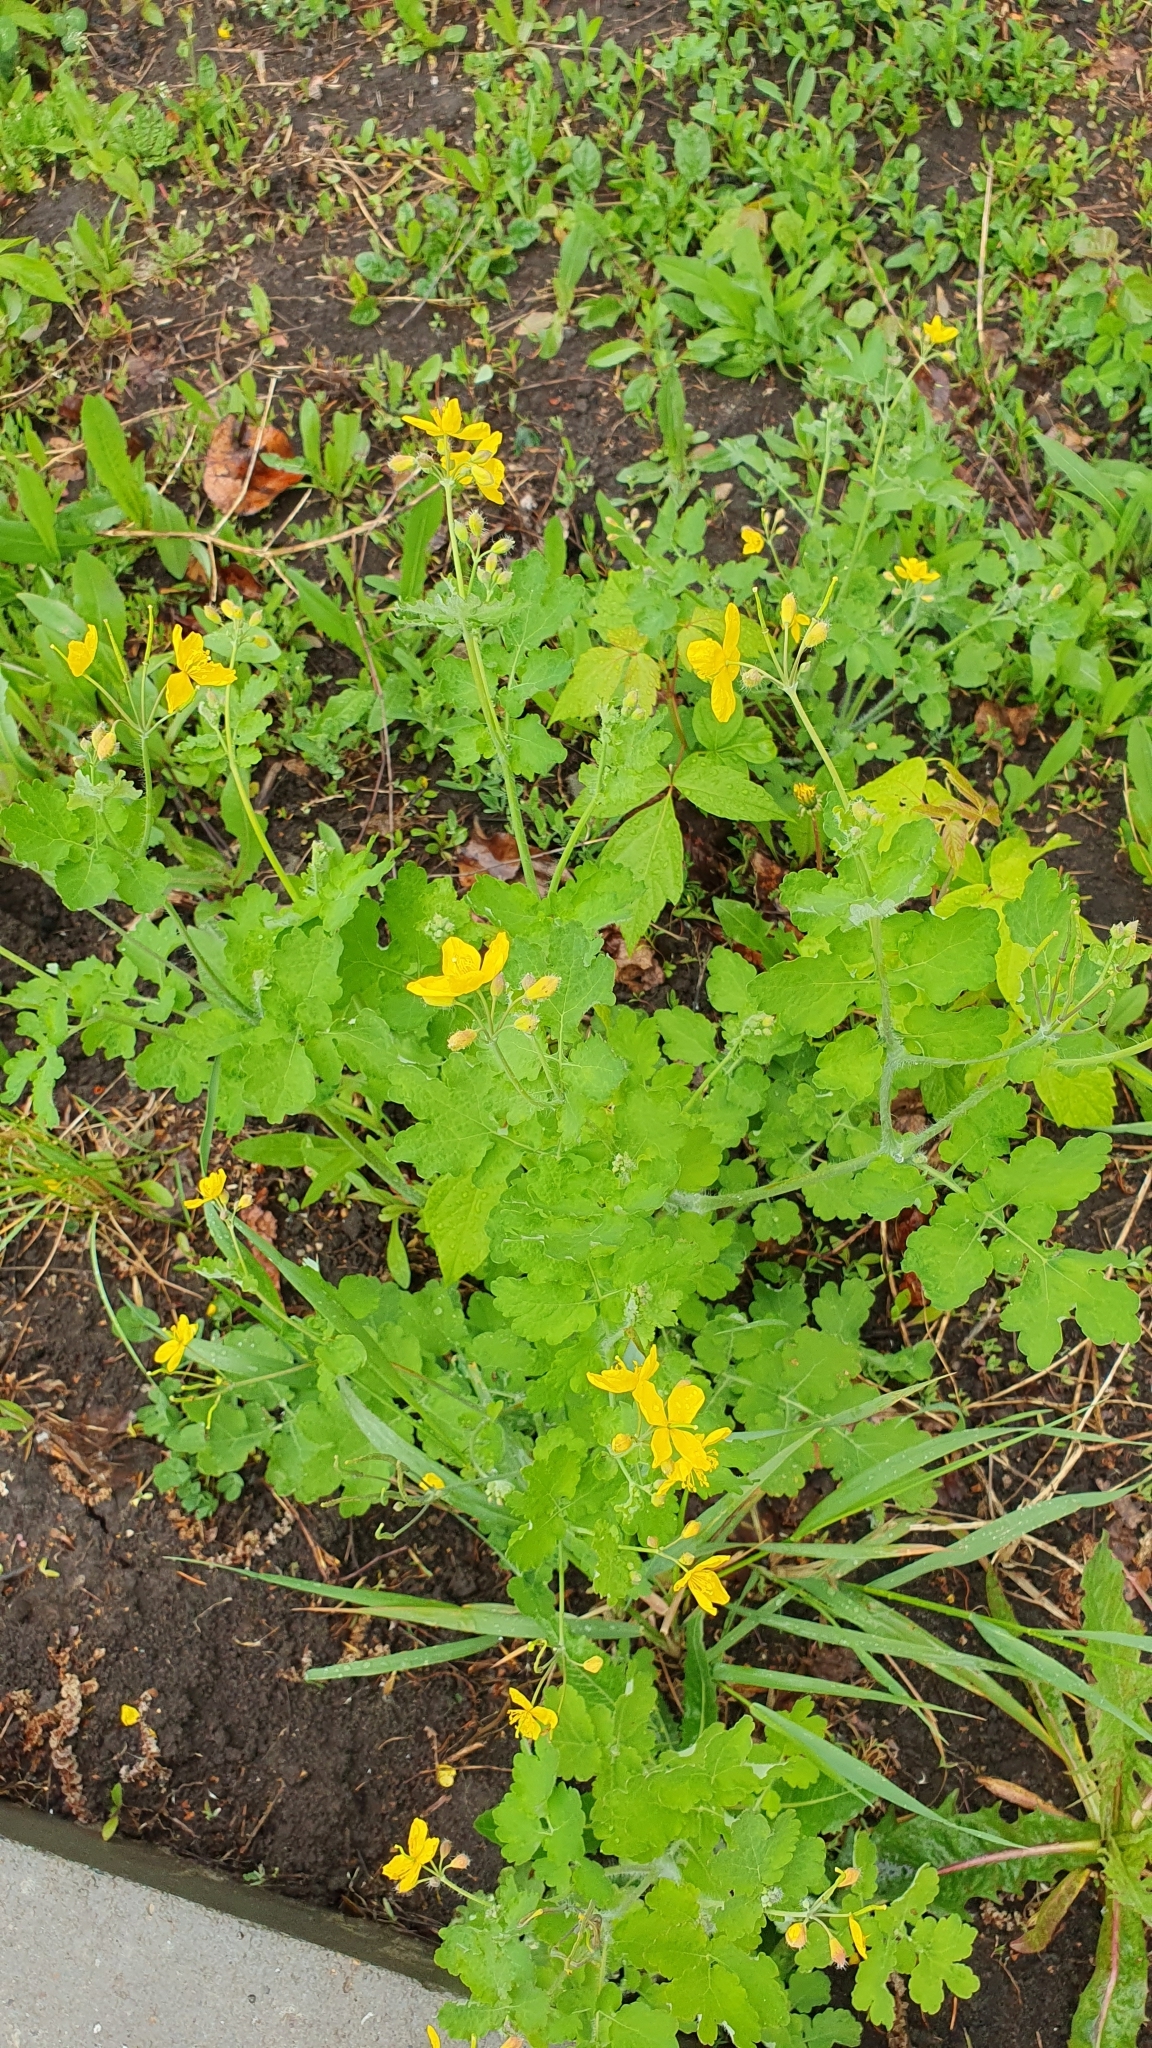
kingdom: Plantae
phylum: Tracheophyta
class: Magnoliopsida
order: Ranunculales
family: Papaveraceae
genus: Chelidonium
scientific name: Chelidonium majus
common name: Greater celandine
